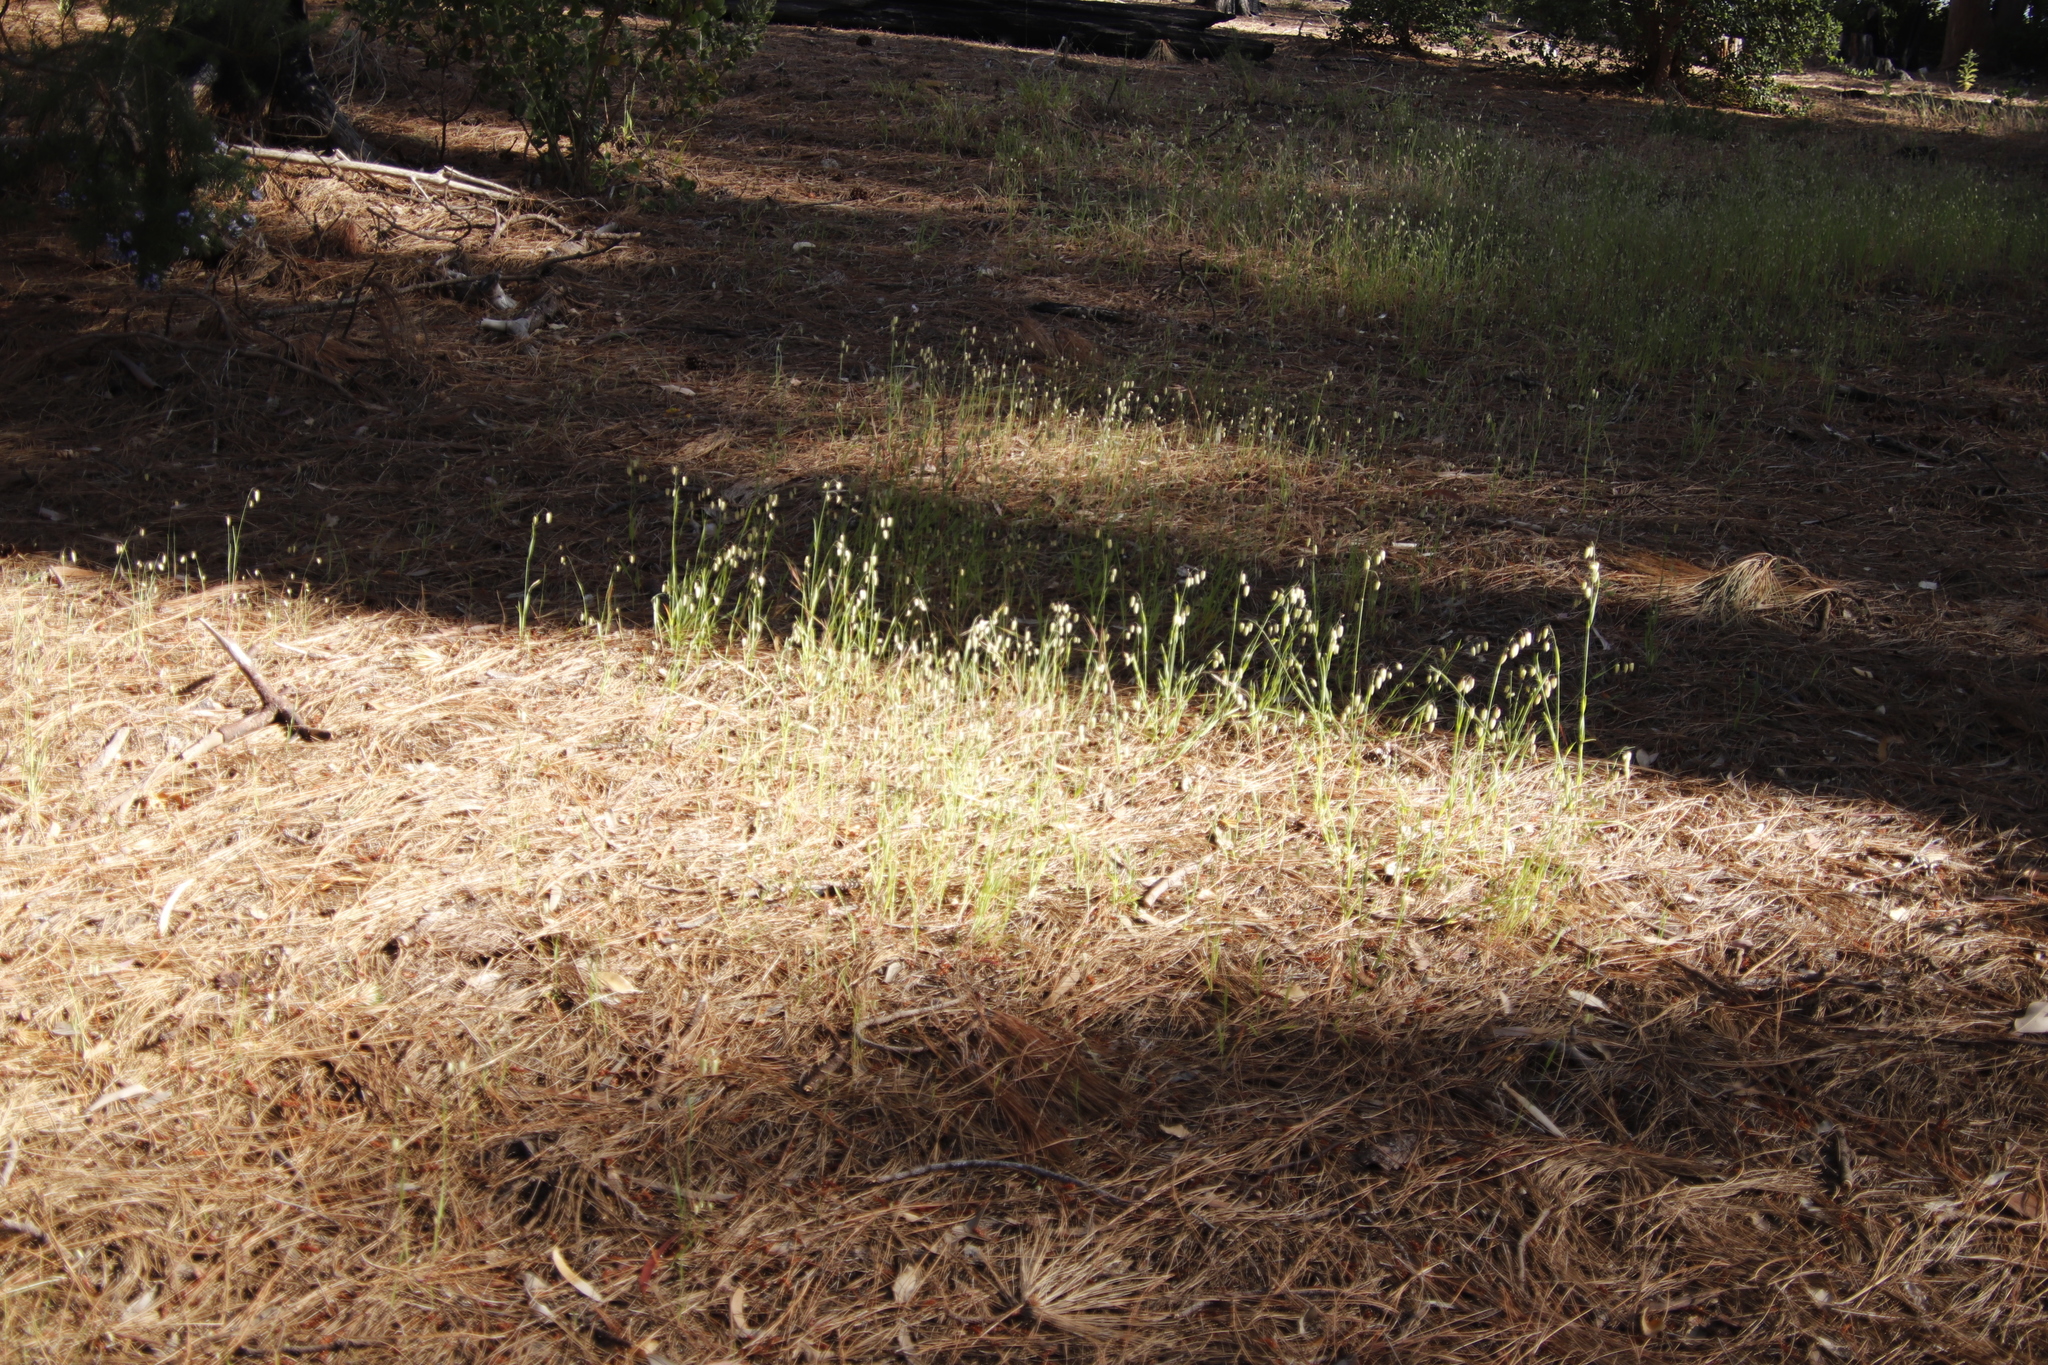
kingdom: Plantae
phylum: Tracheophyta
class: Liliopsida
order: Poales
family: Poaceae
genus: Briza
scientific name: Briza maxima
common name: Big quakinggrass
